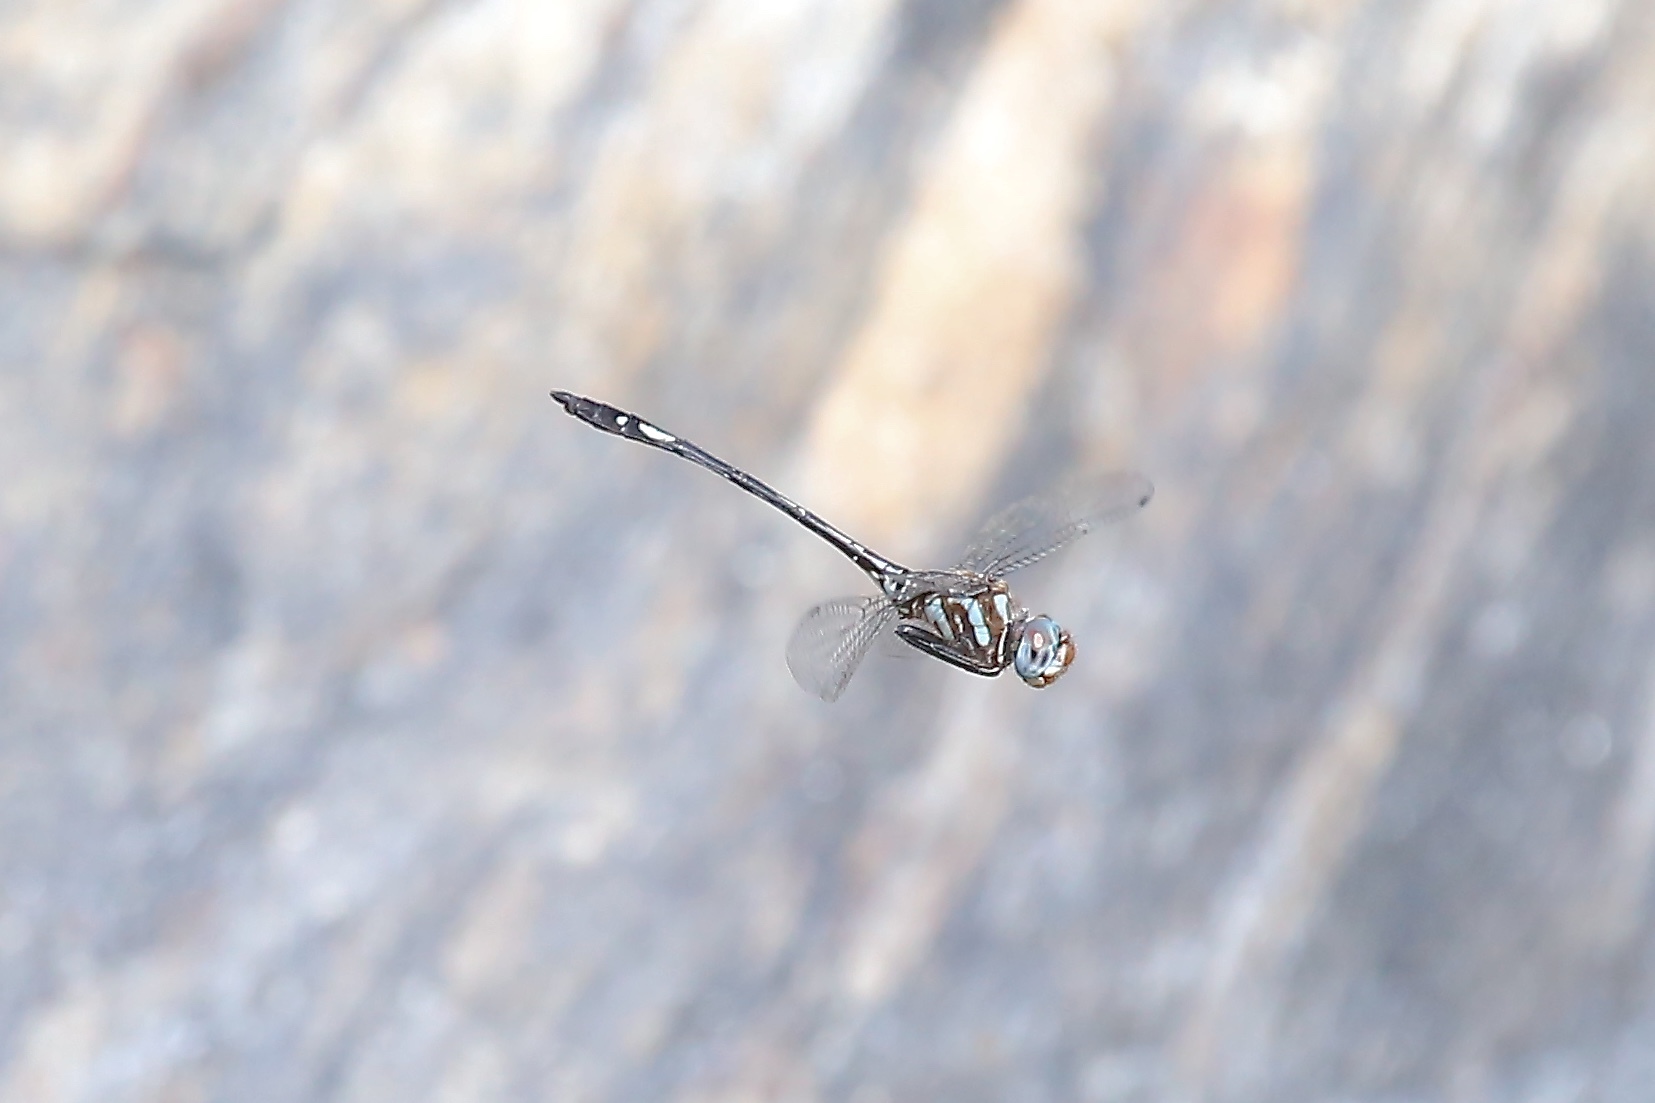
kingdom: Animalia
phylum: Arthropoda
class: Insecta
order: Odonata
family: Libellulidae
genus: Brechmorhoga
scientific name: Brechmorhoga mendax
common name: Pale-faced clubskimmer
